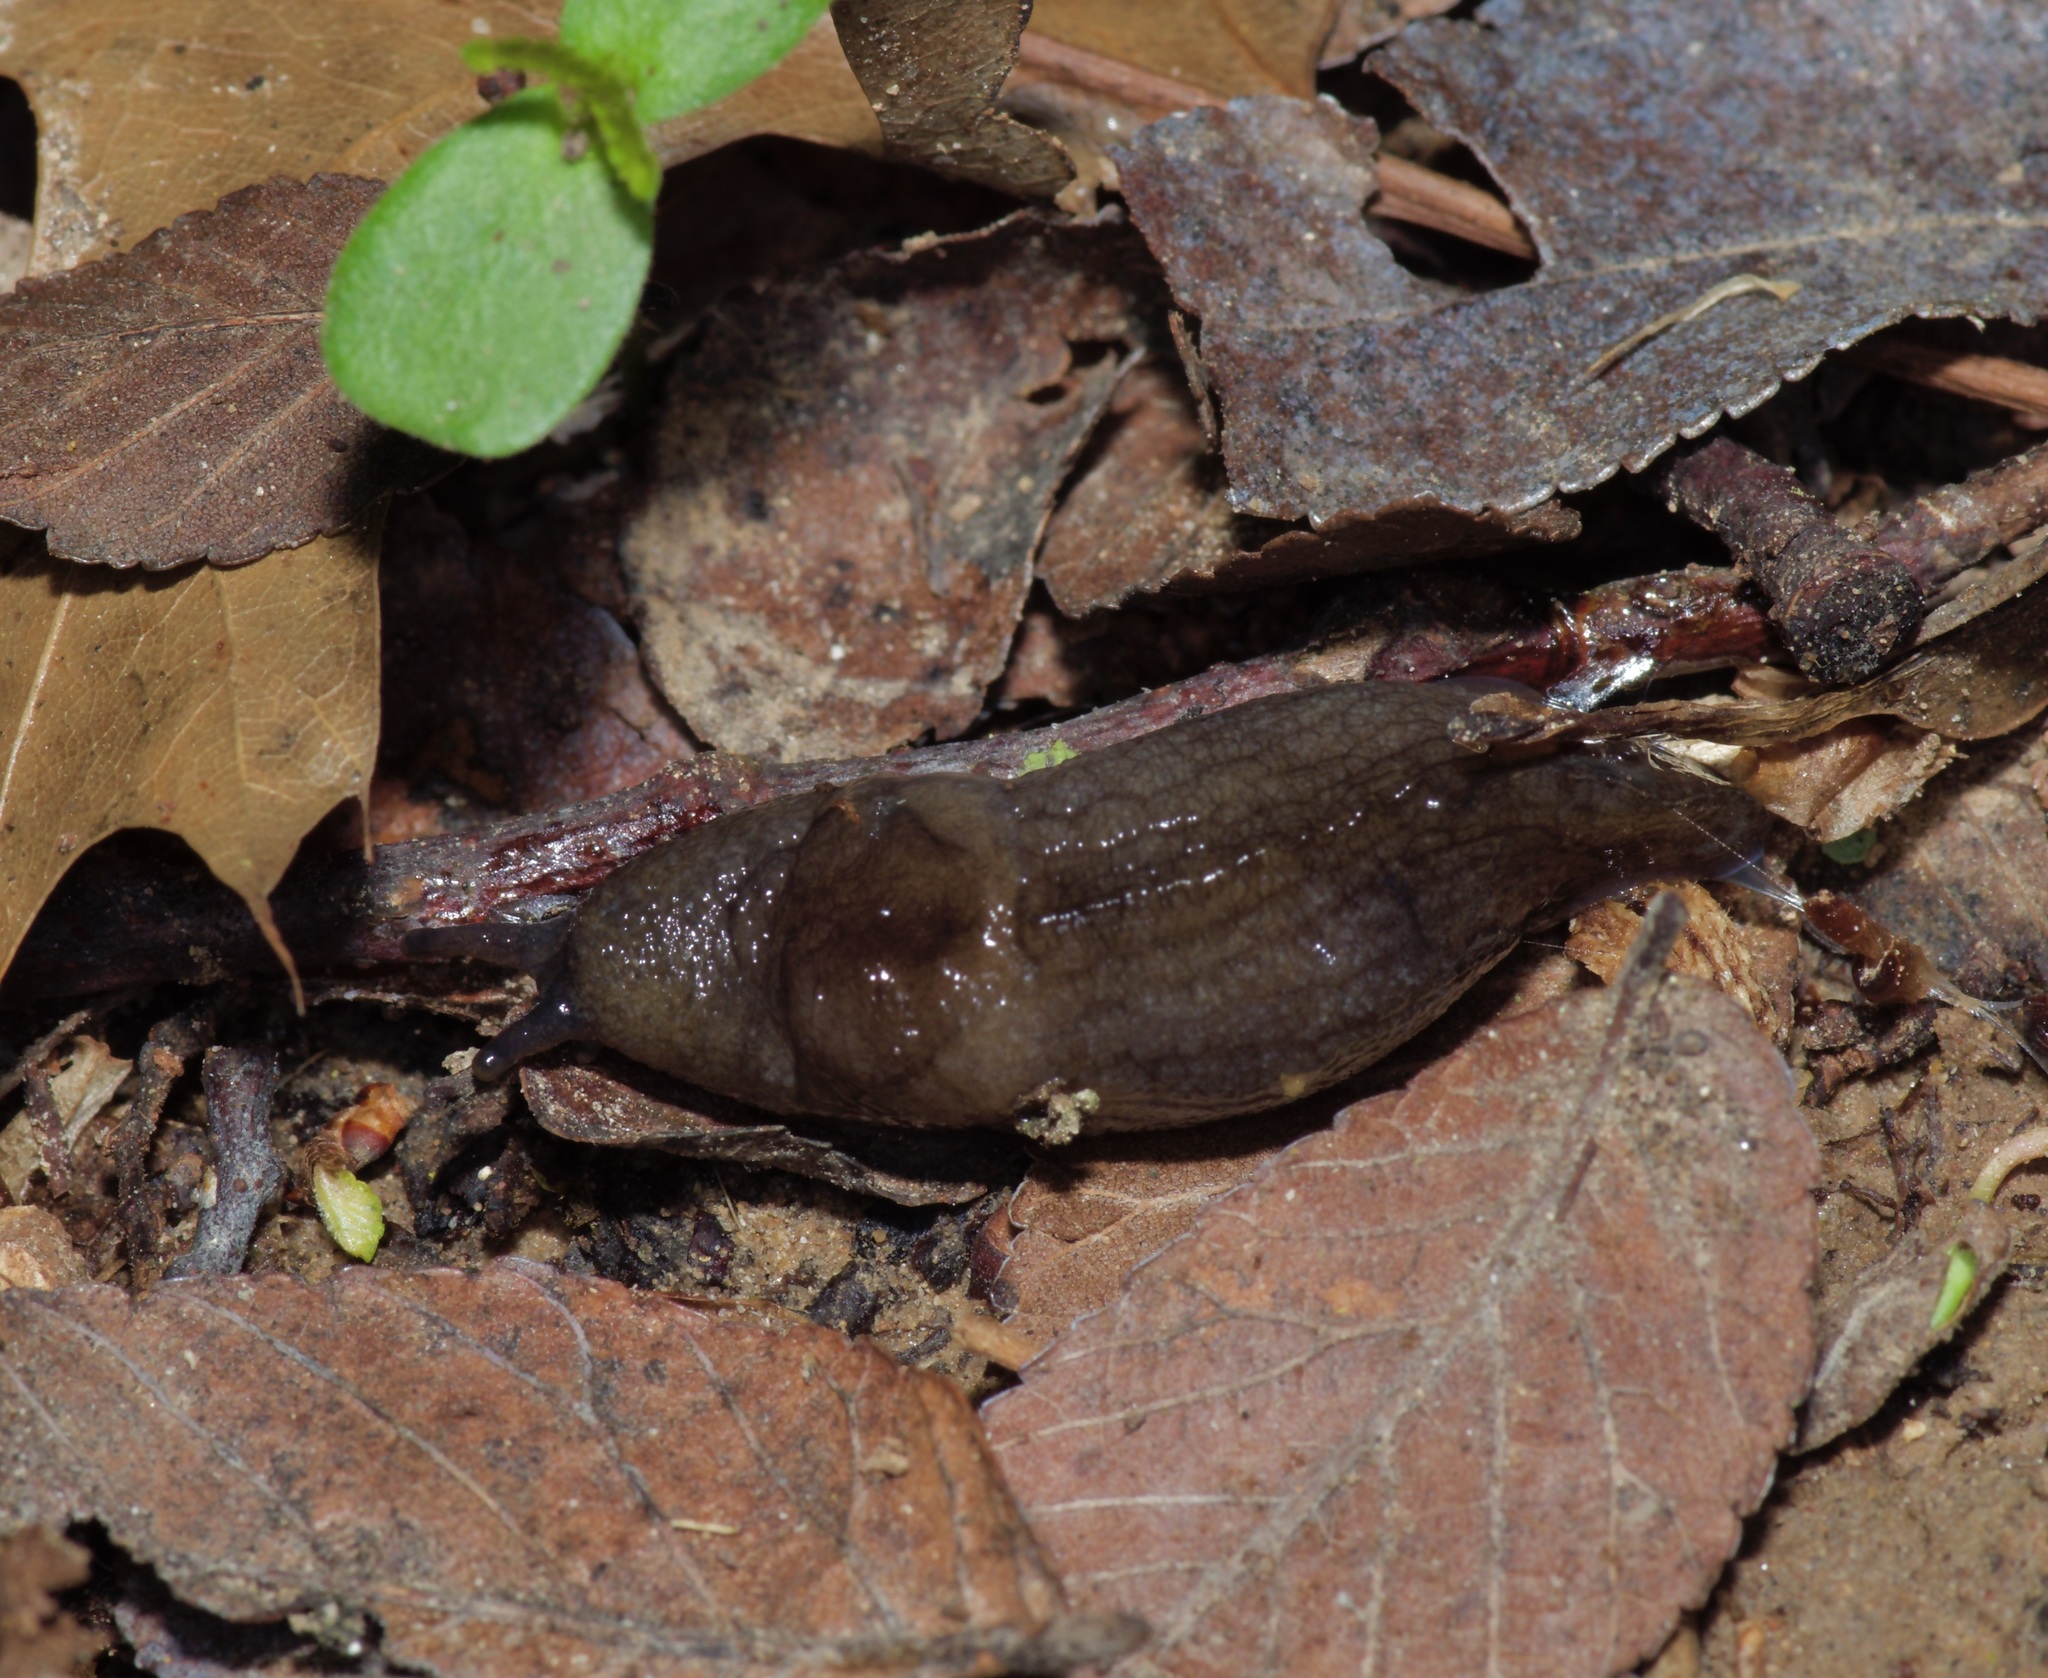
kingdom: Animalia
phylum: Mollusca
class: Gastropoda
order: Stylommatophora
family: Milacidae
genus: Milax
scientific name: Milax gagates
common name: Greenhouse slug
